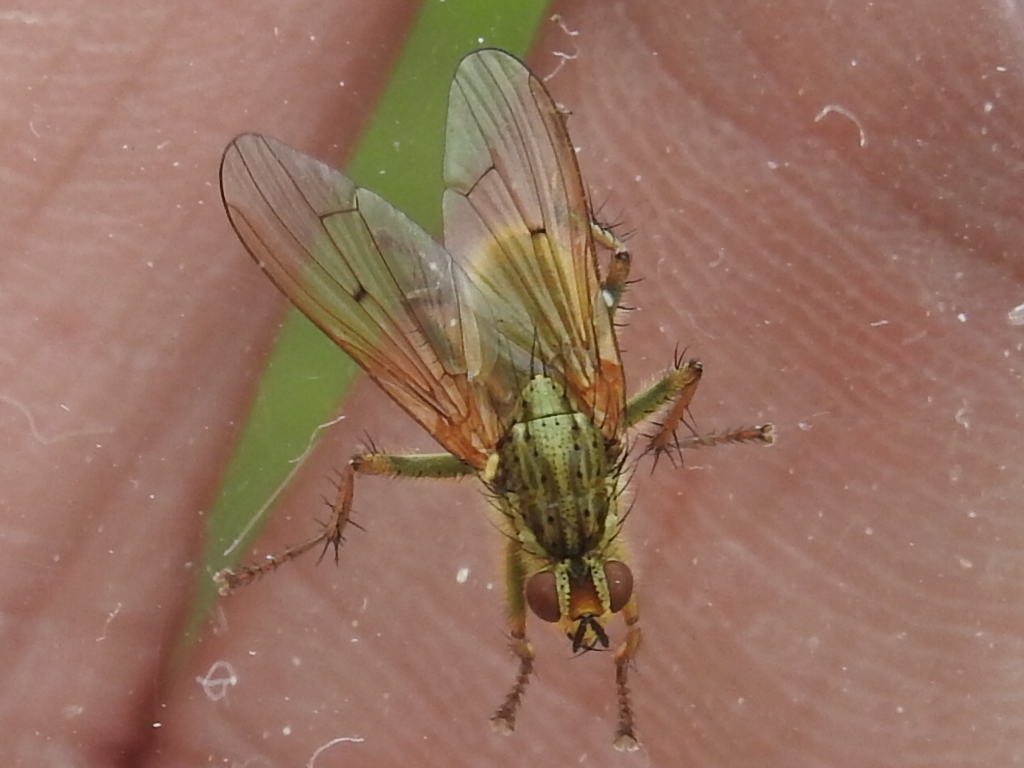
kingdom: Animalia
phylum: Arthropoda
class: Insecta
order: Diptera
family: Scathophagidae
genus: Scathophaga
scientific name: Scathophaga stercoraria
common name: Yellow dung fly
